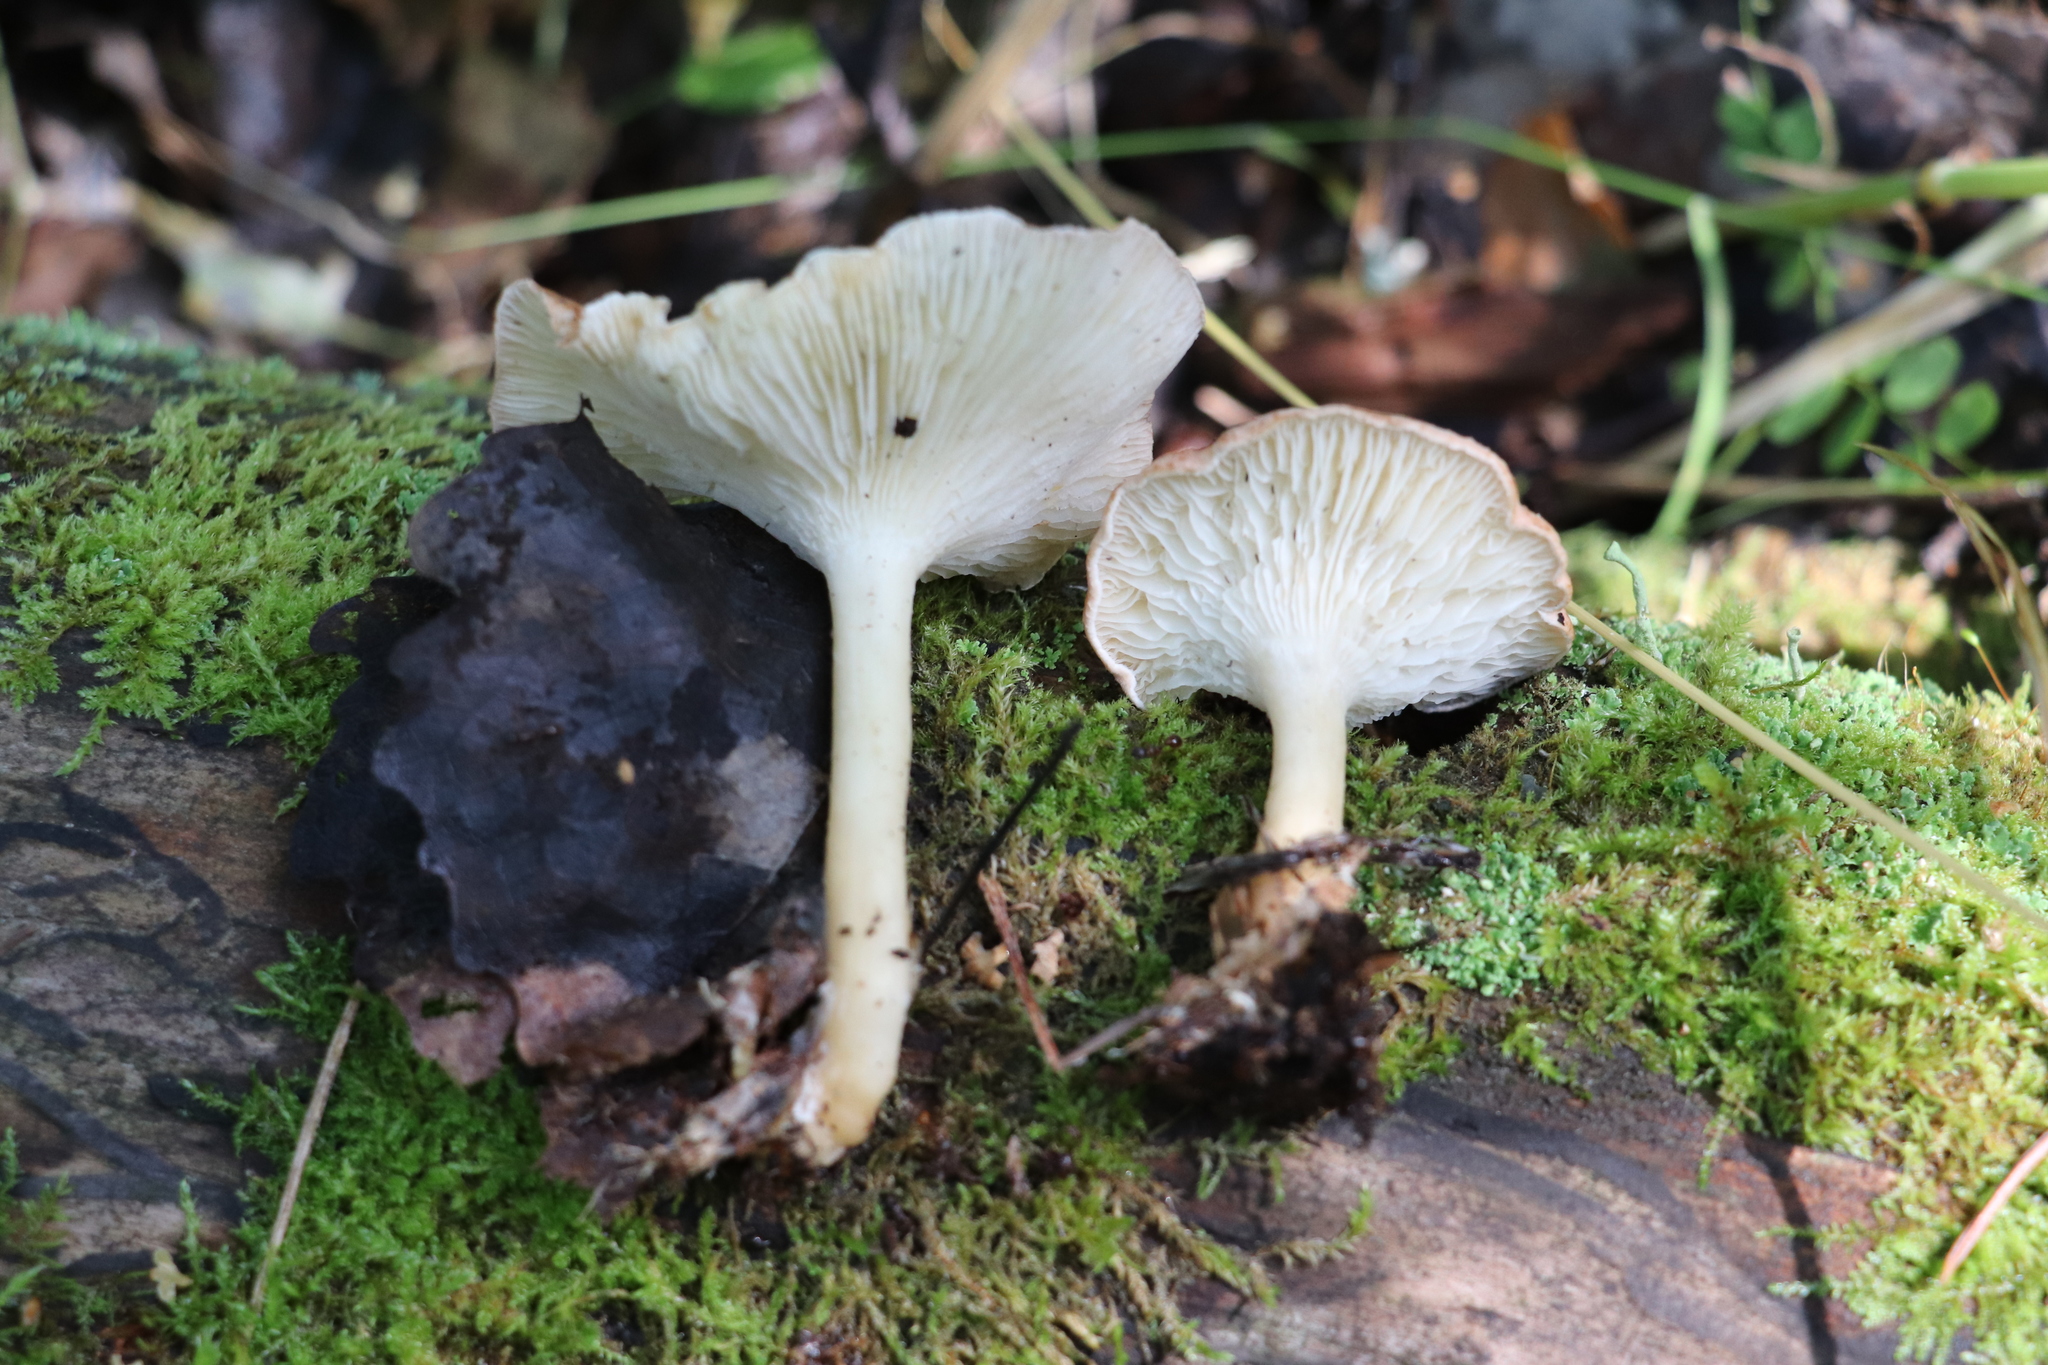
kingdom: Fungi
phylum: Basidiomycota
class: Agaricomycetes
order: Agaricales
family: Tricholomataceae
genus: Infundibulicybe
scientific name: Infundibulicybe gibba
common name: Common funnel
